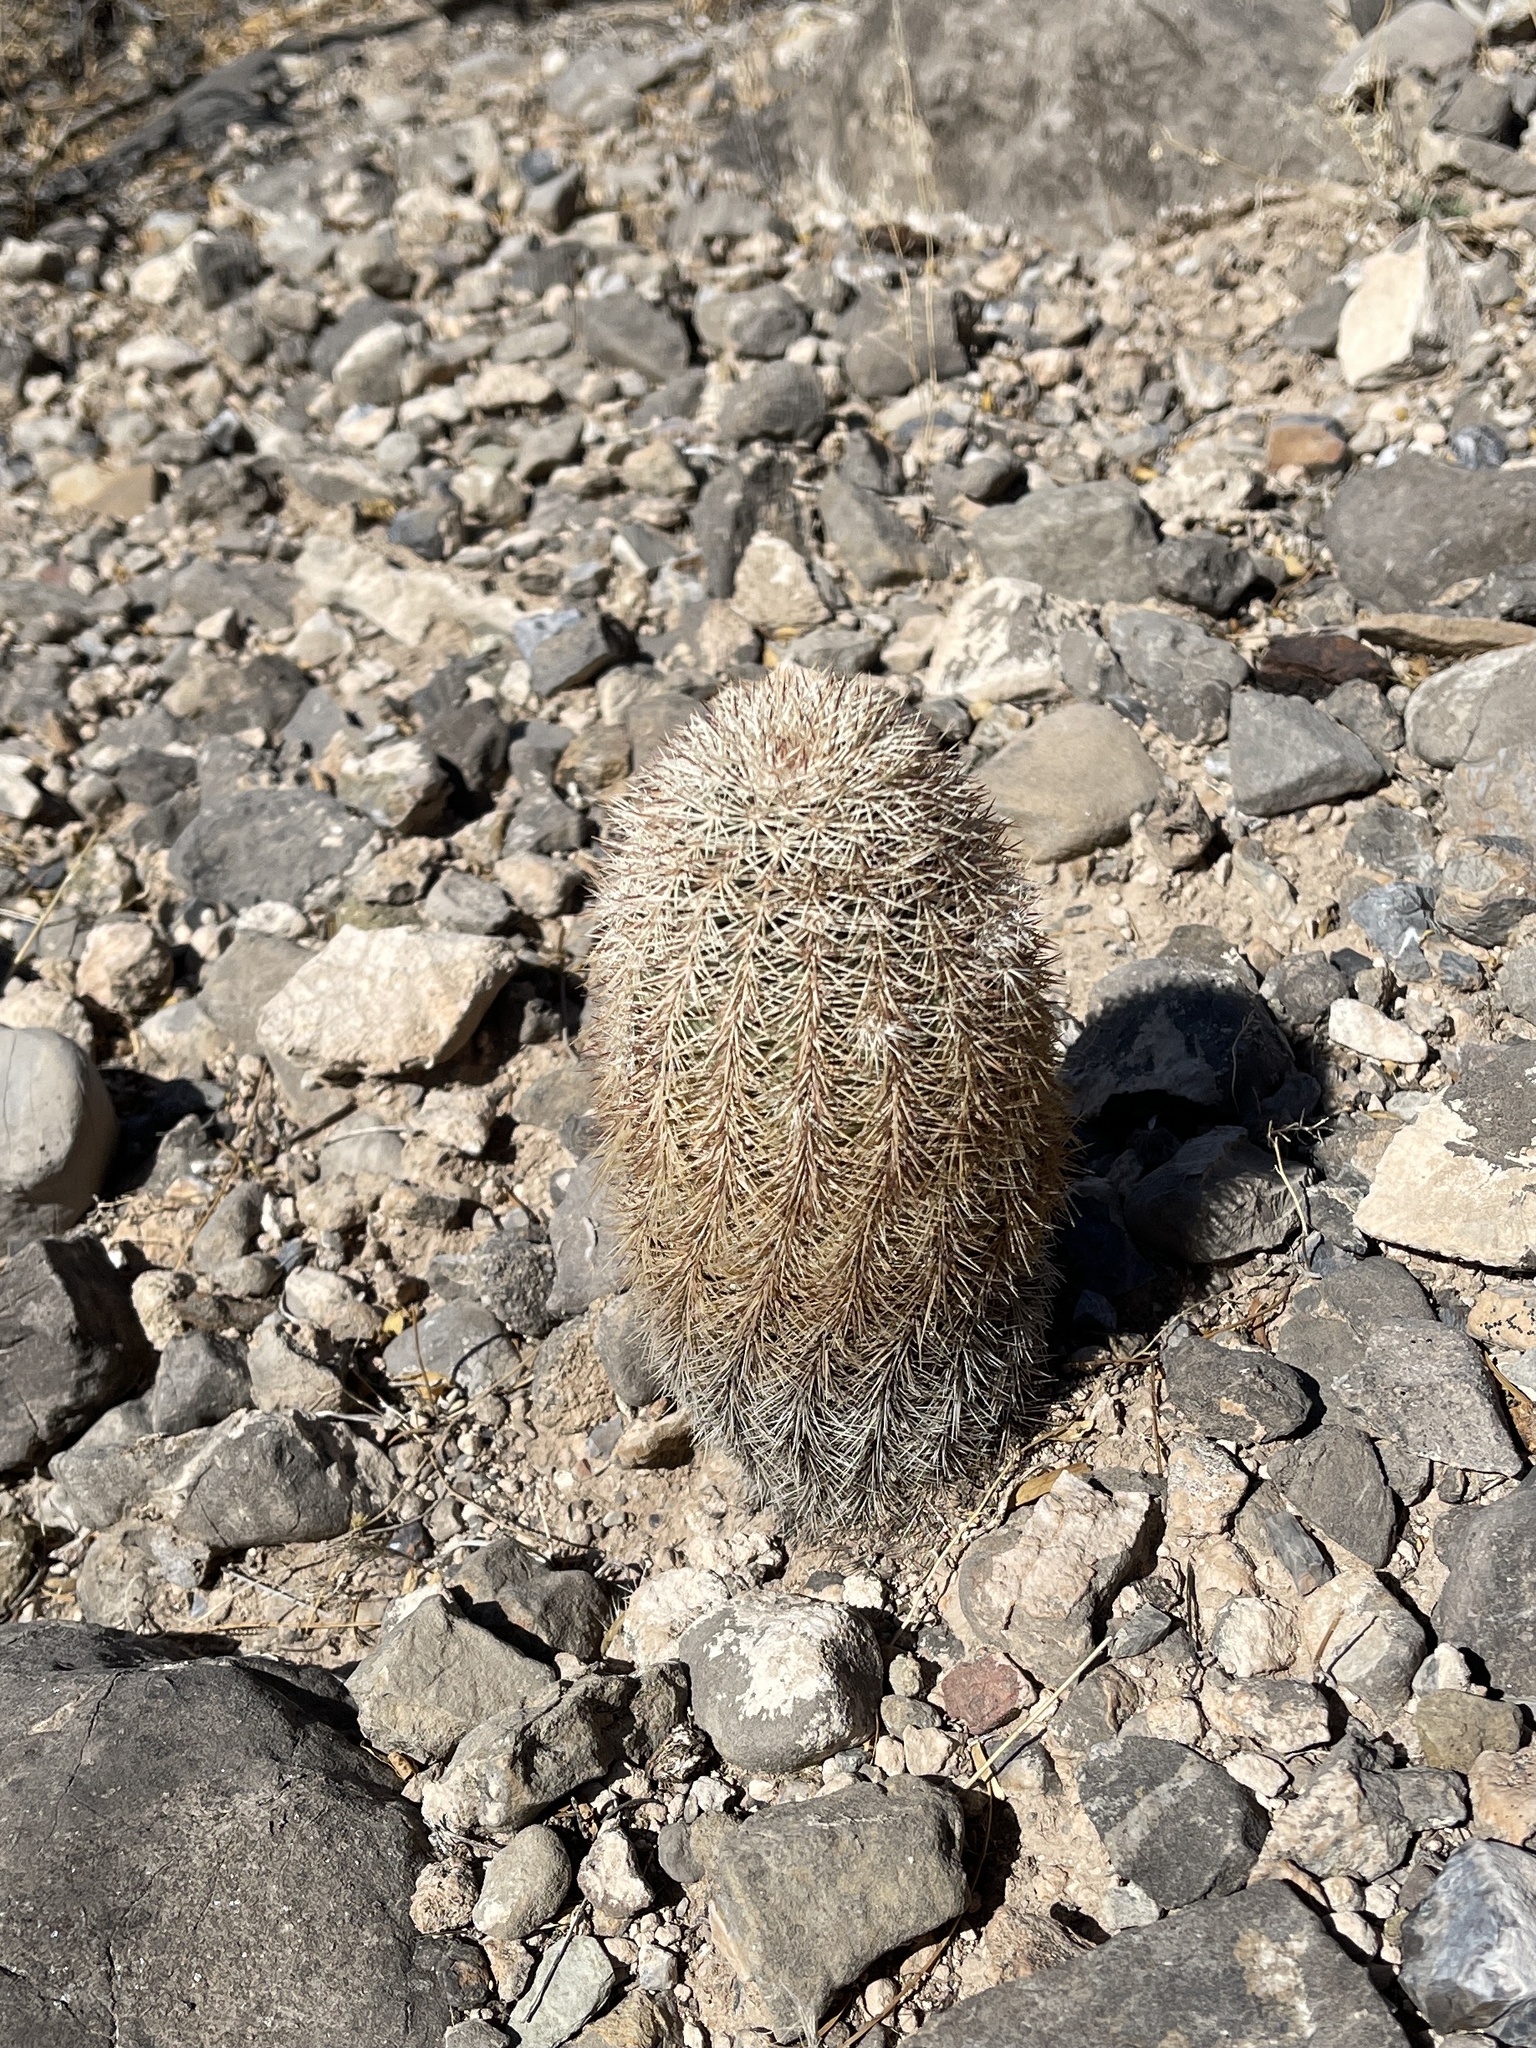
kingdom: Plantae
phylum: Tracheophyta
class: Magnoliopsida
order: Caryophyllales
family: Cactaceae
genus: Echinocereus
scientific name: Echinocereus dasyacanthus
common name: Spiny hedgehog cactus
